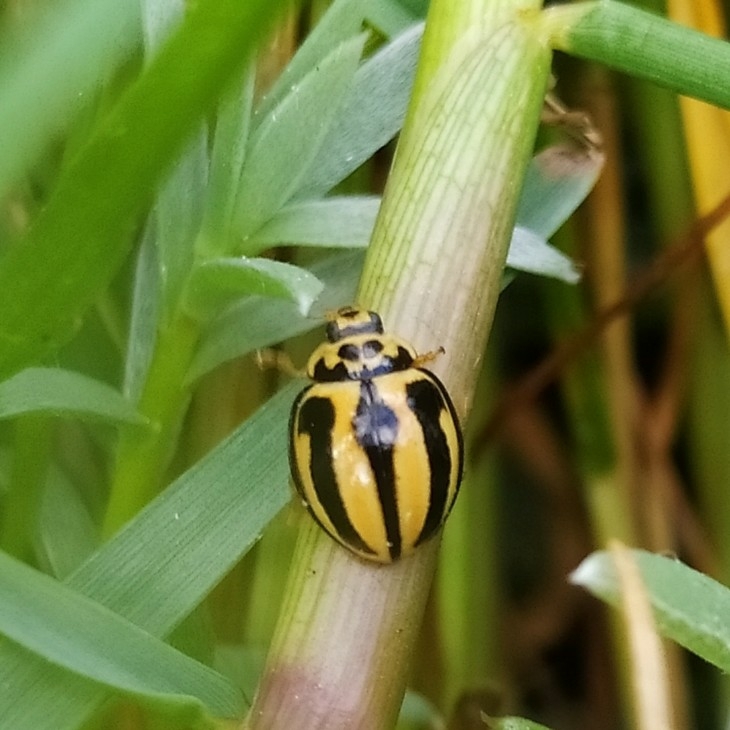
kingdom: Animalia
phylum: Arthropoda
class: Insecta
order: Coleoptera
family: Coccinellidae
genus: Micraspis
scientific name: Micraspis
